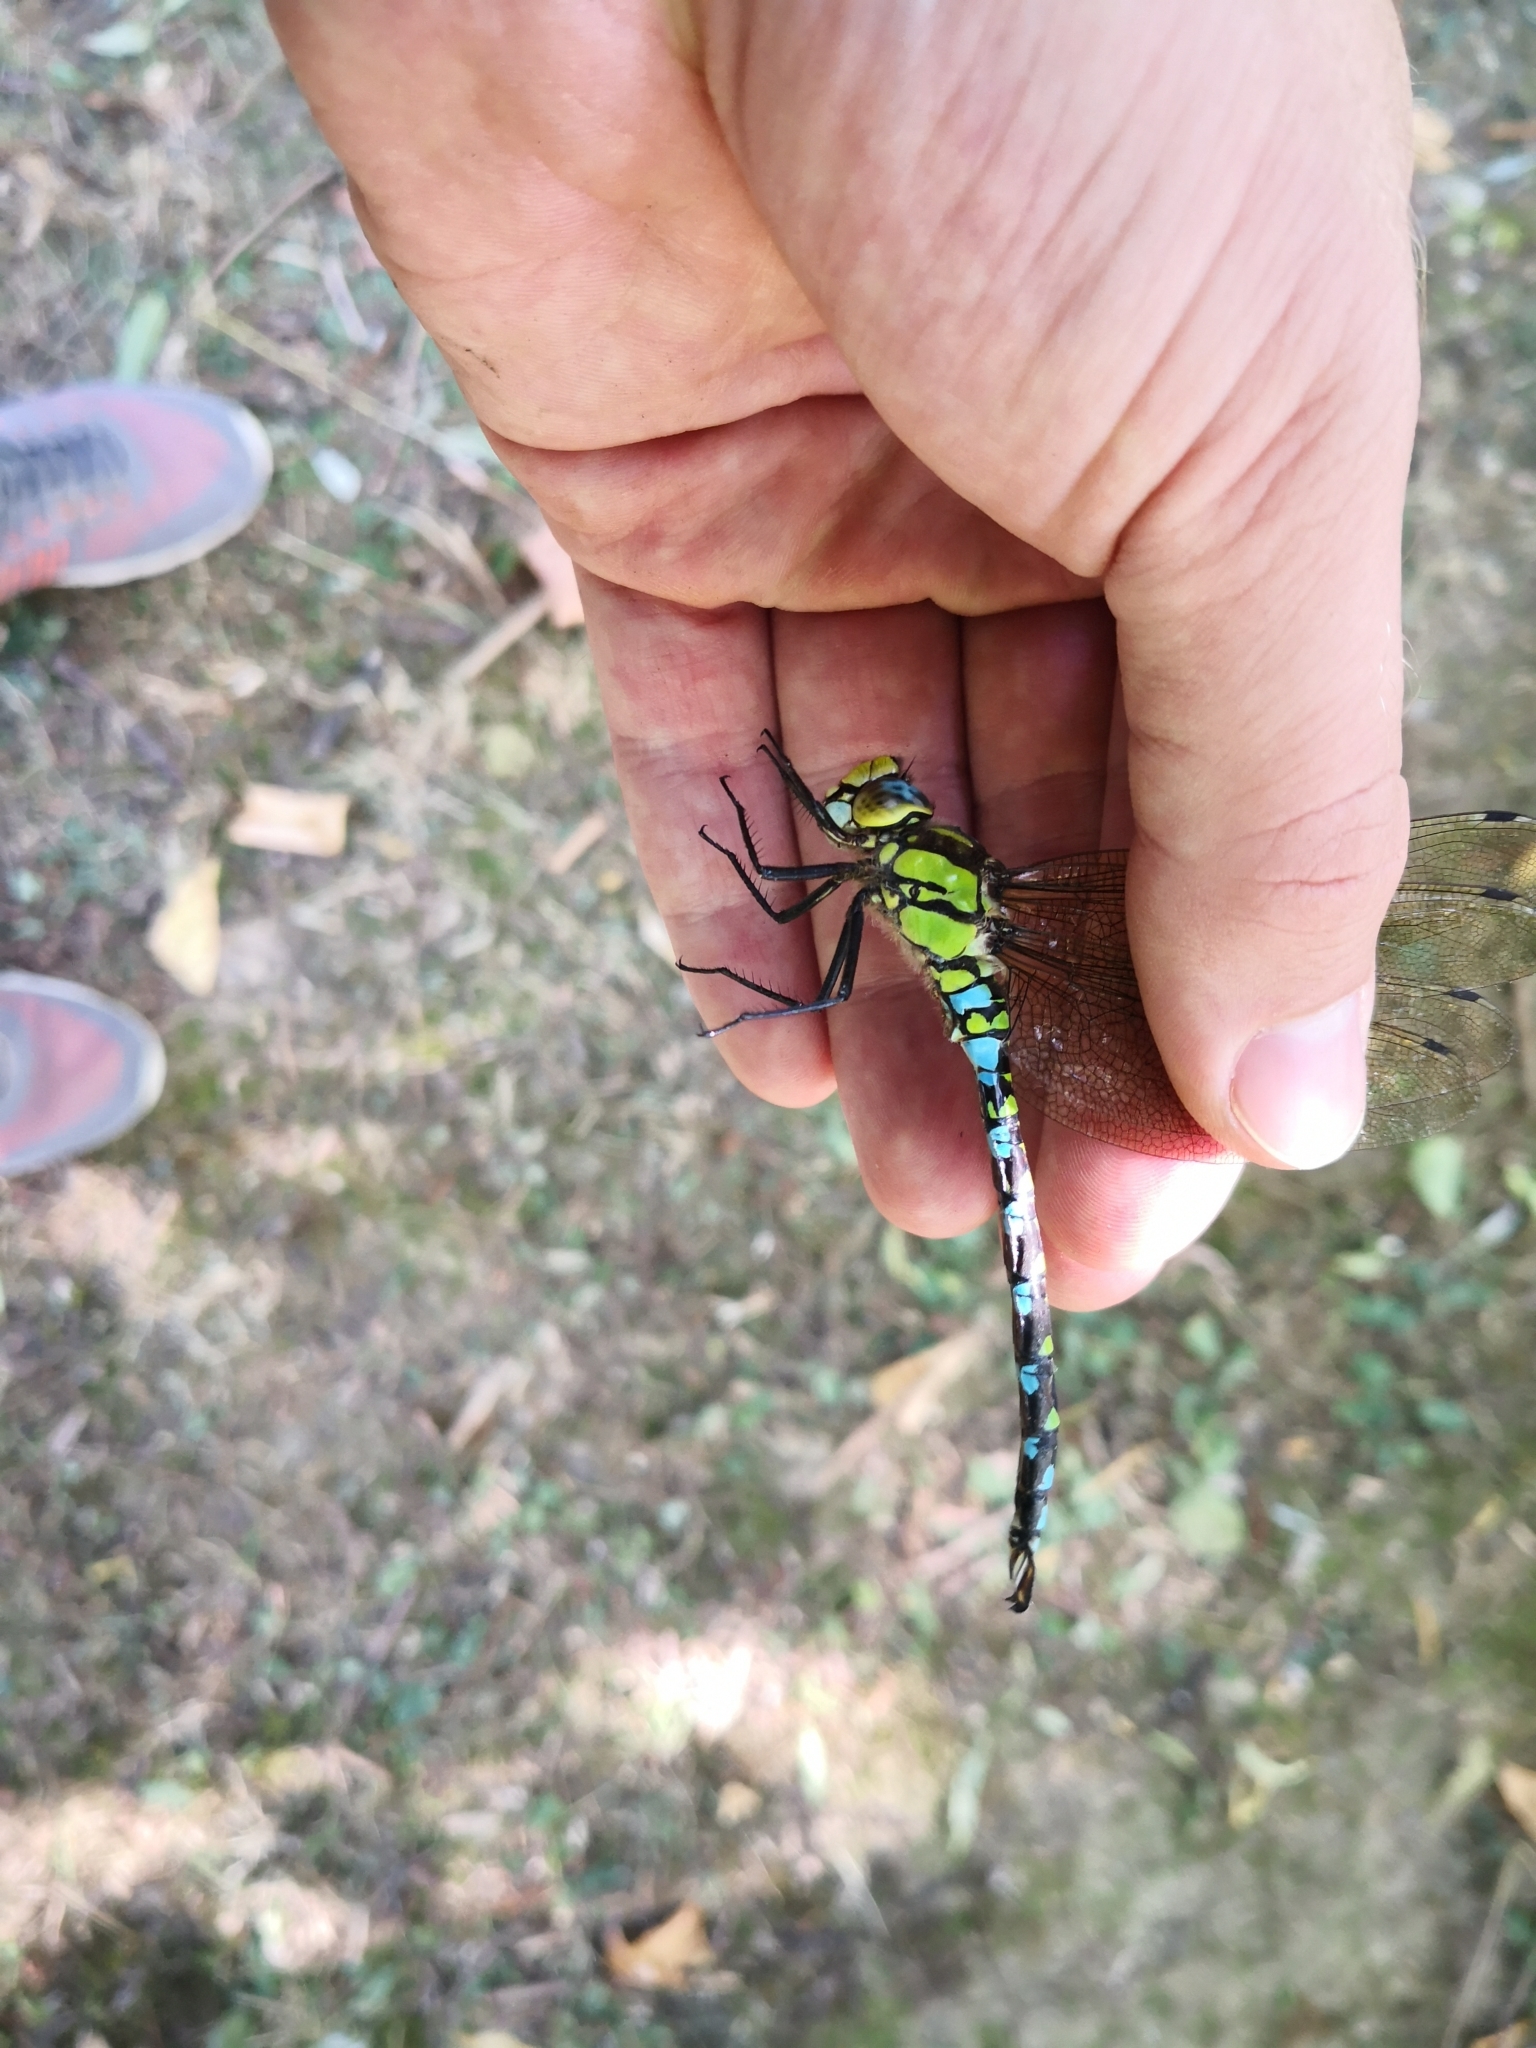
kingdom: Animalia
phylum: Arthropoda
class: Insecta
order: Odonata
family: Aeshnidae
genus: Aeshna
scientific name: Aeshna cyanea
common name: Southern hawker
